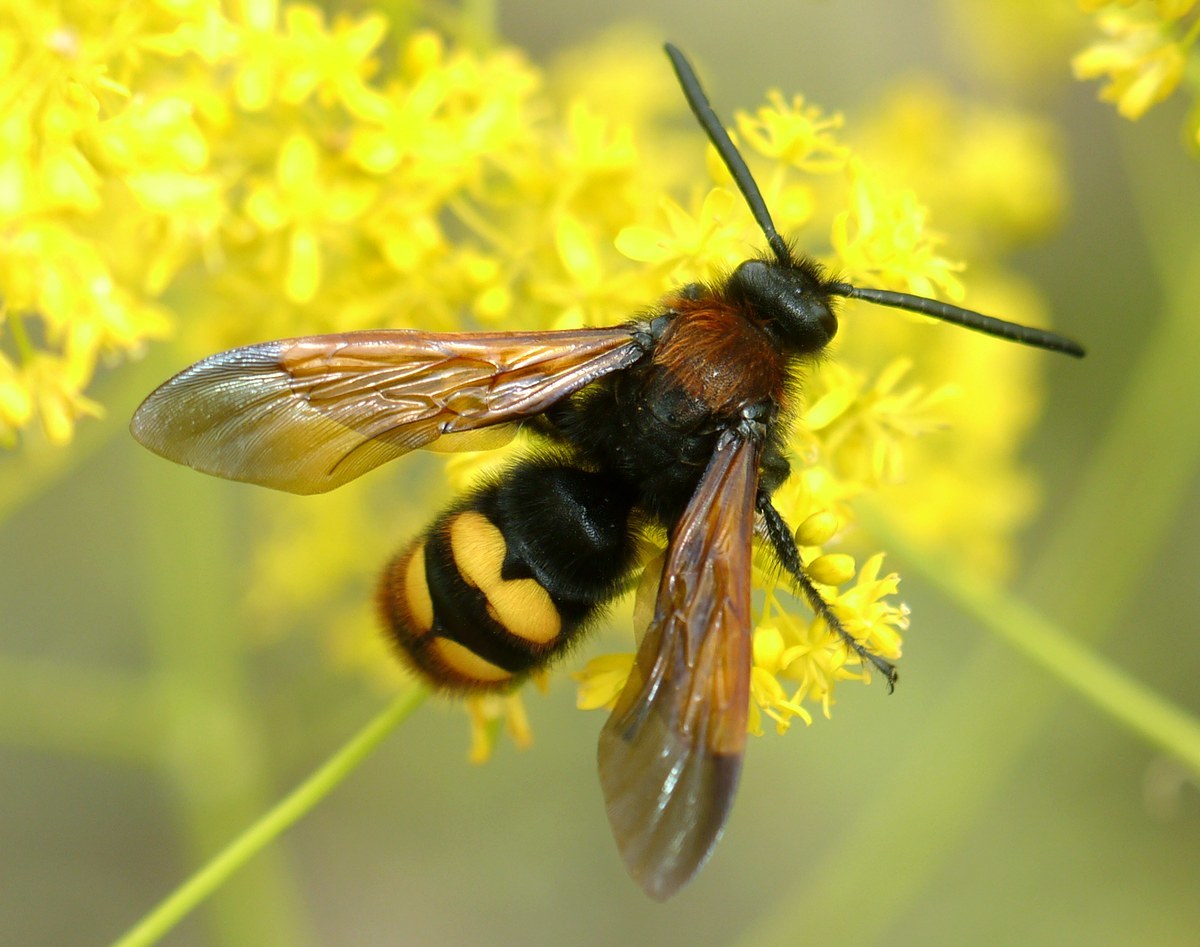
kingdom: Animalia
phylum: Arthropoda
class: Insecta
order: Hymenoptera
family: Scoliidae
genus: Megascolia
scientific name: Megascolia maculata
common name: Mammoth wasp
